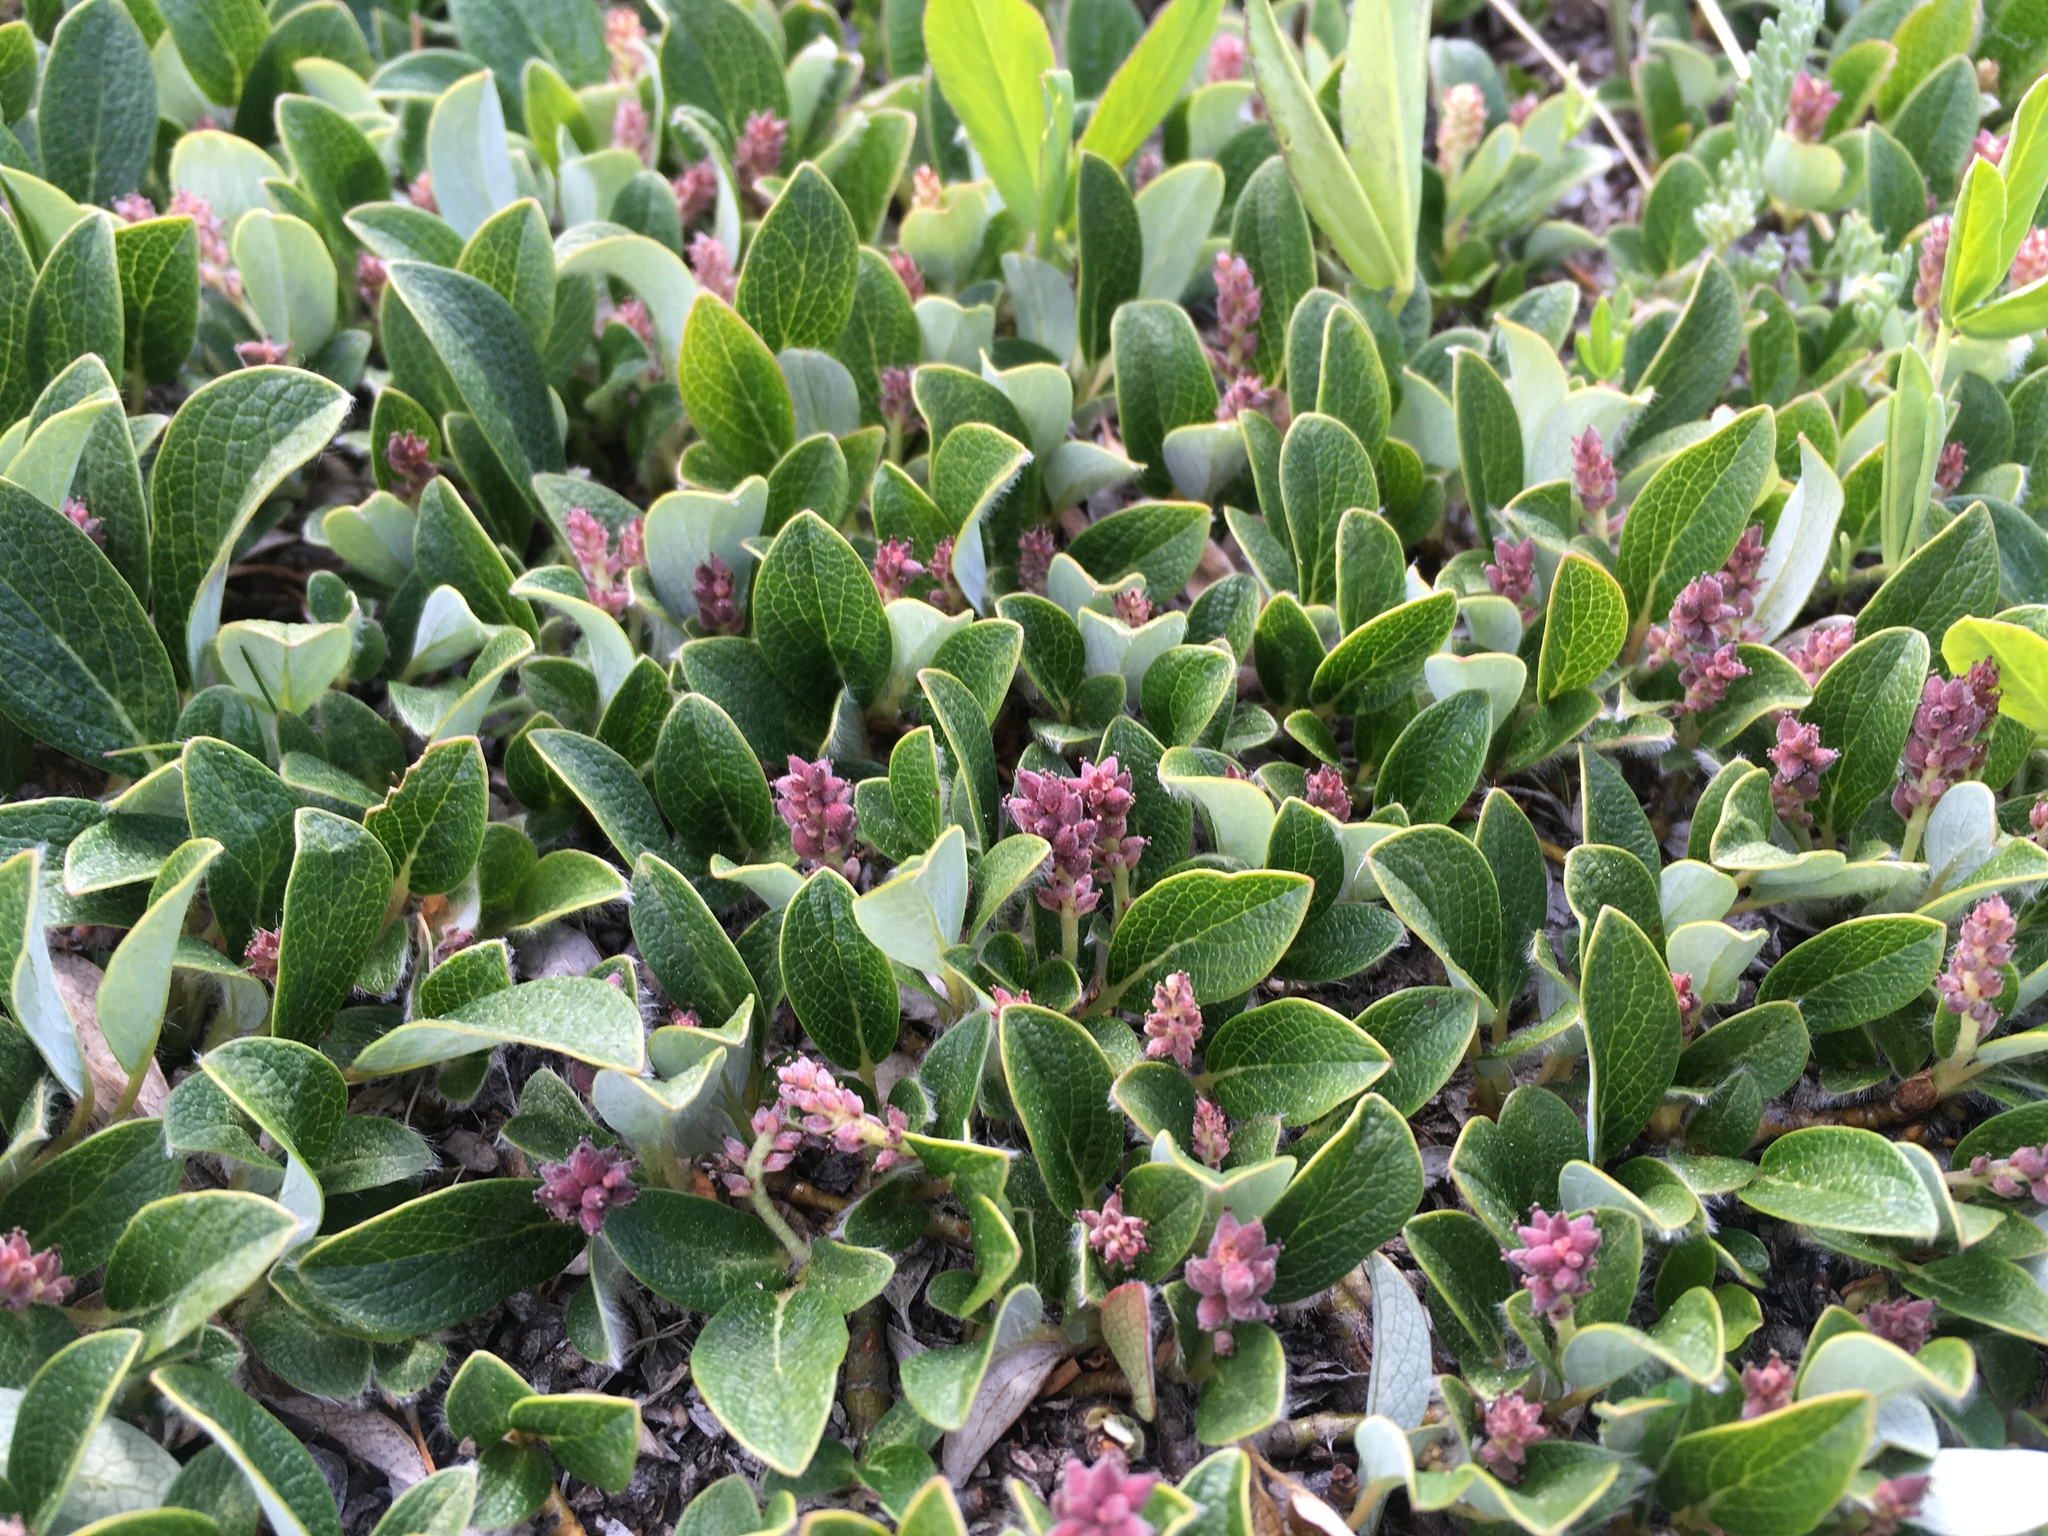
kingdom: Plantae
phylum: Tracheophyta
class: Magnoliopsida
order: Malpighiales
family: Salicaceae
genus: Salix
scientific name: Salix nivalis
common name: Dwarf snow willow
